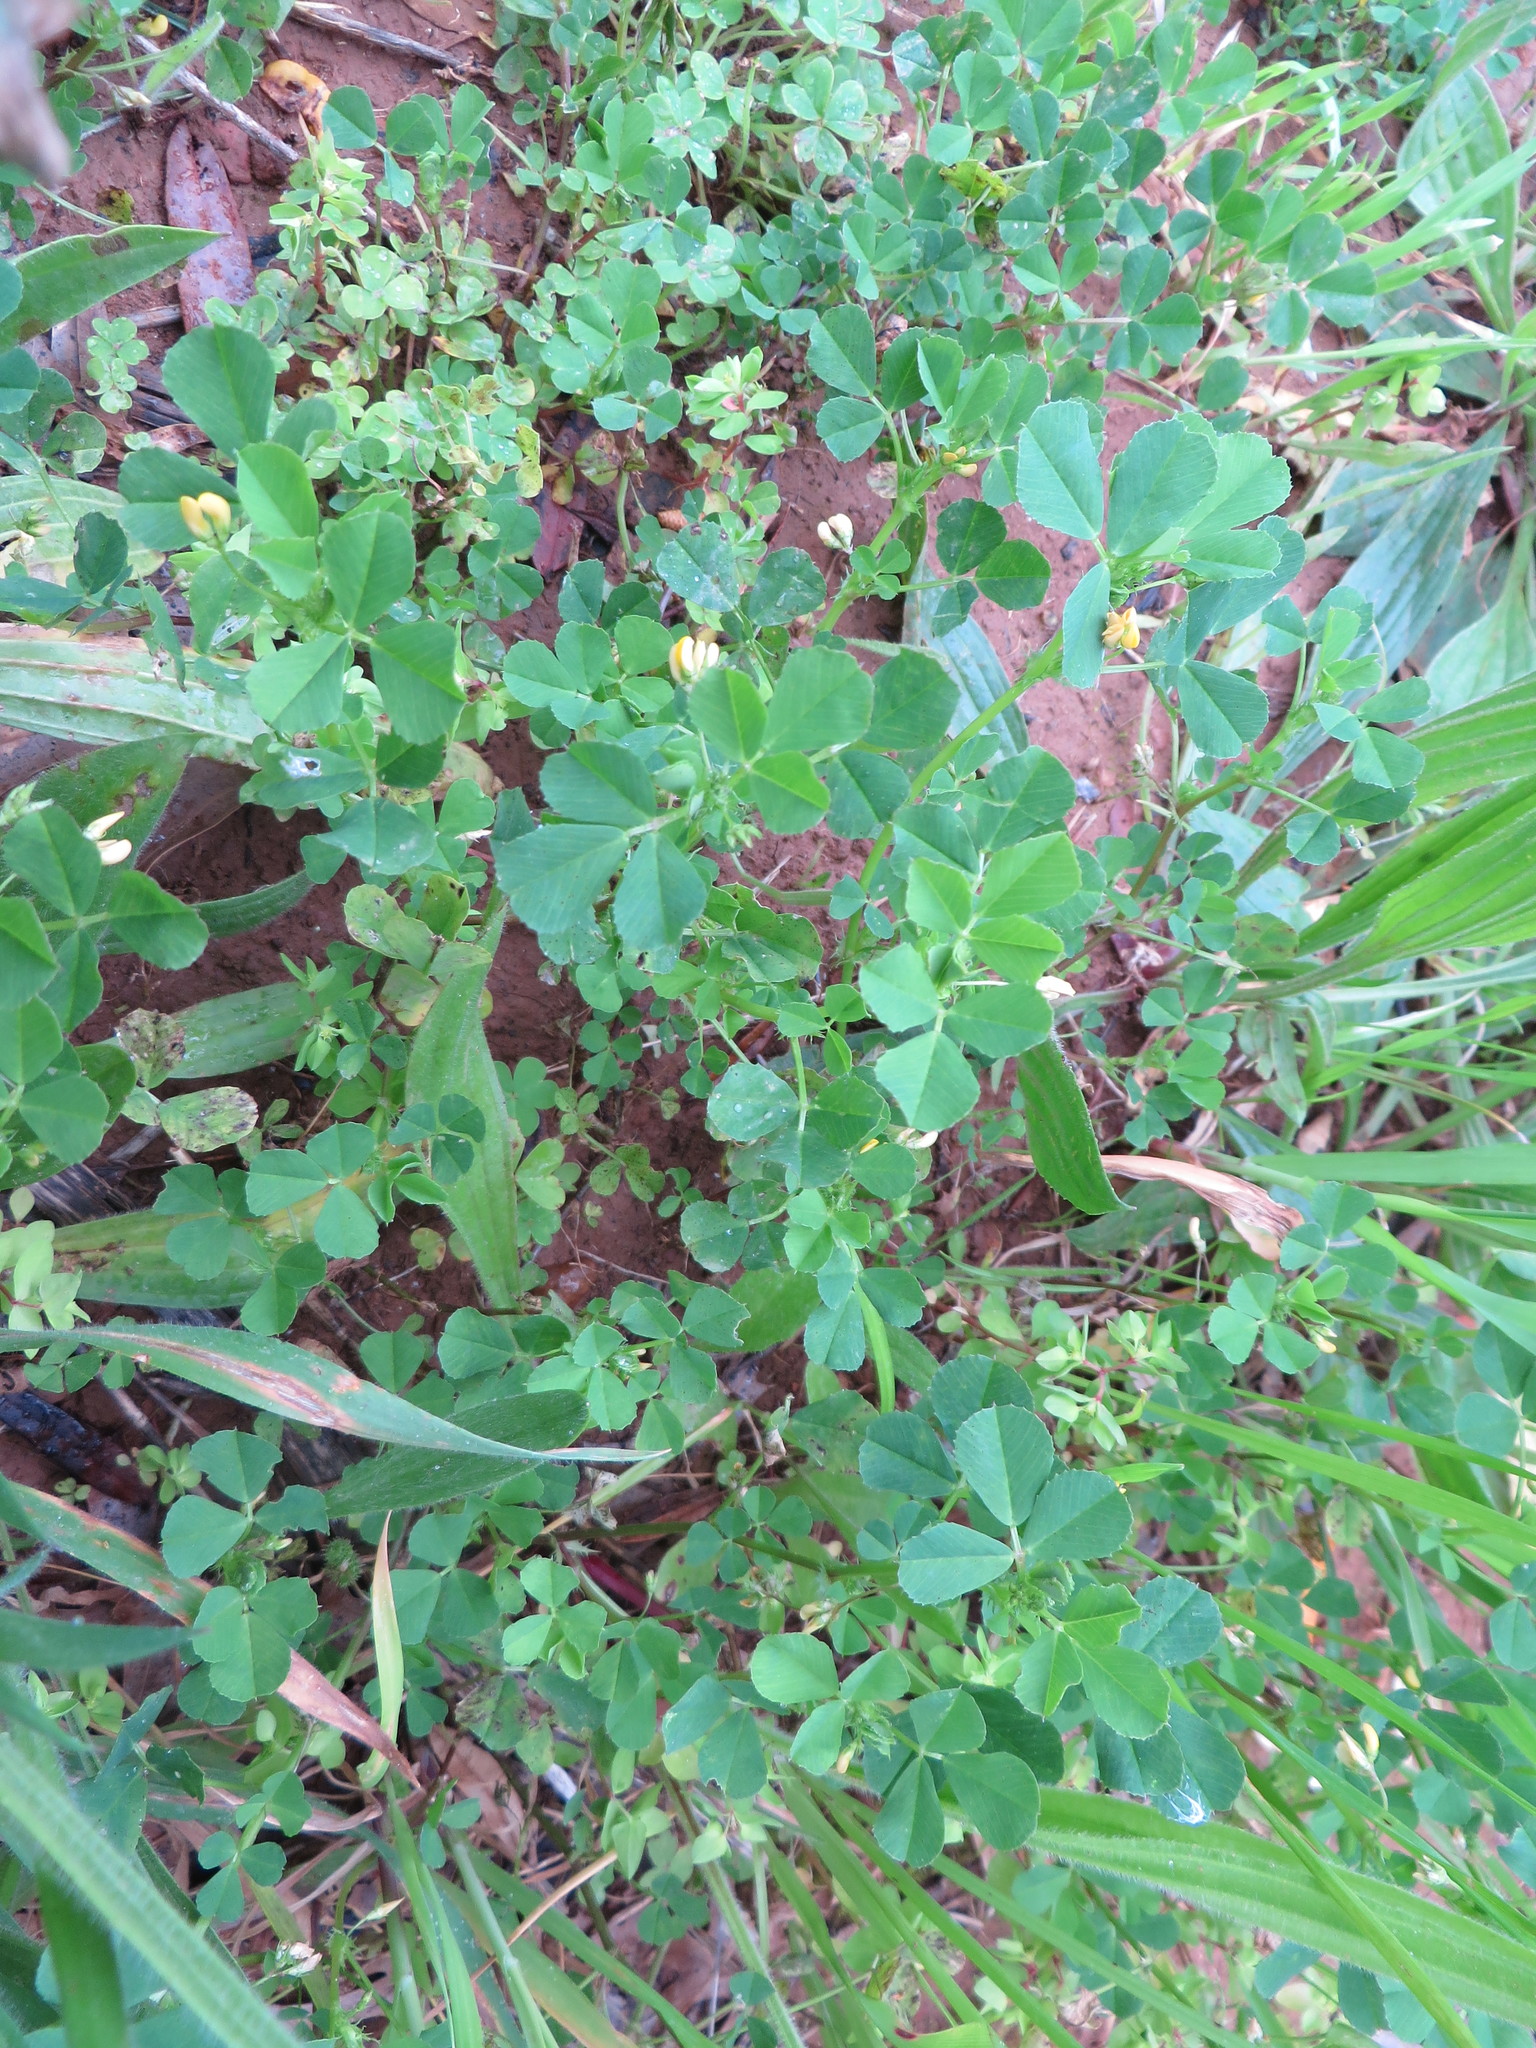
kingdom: Plantae
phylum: Tracheophyta
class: Magnoliopsida
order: Fabales
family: Fabaceae
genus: Medicago
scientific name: Medicago polymorpha
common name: Burclover
